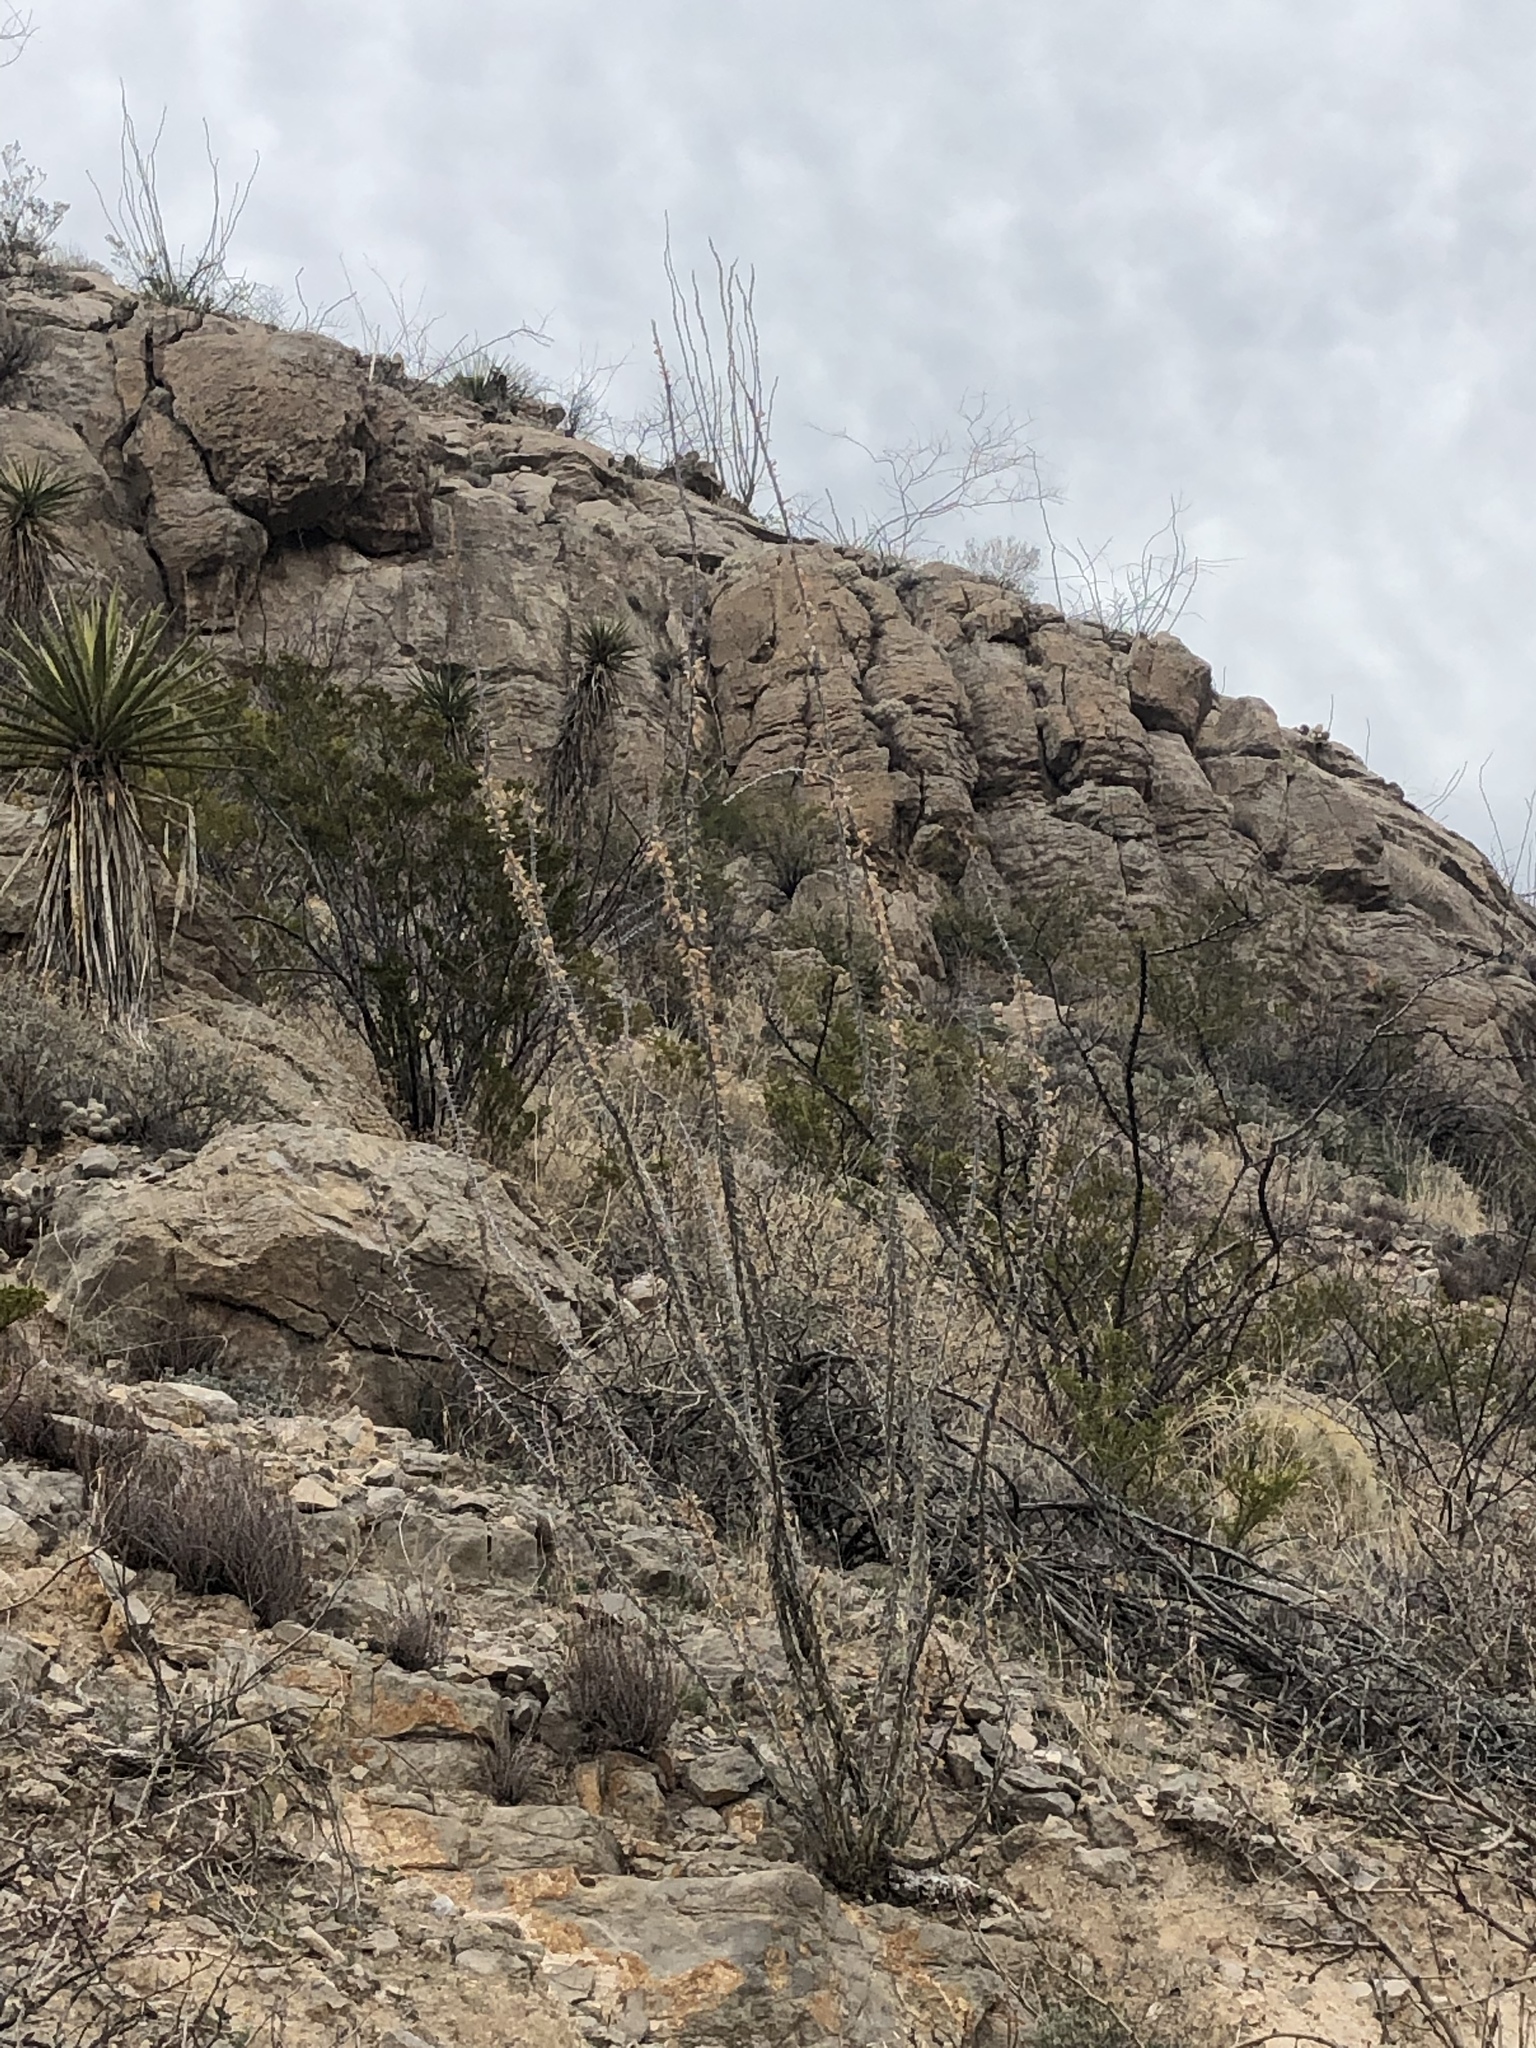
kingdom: Plantae
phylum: Tracheophyta
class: Magnoliopsida
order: Ericales
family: Fouquieriaceae
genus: Fouquieria
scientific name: Fouquieria splendens
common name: Vine-cactus
